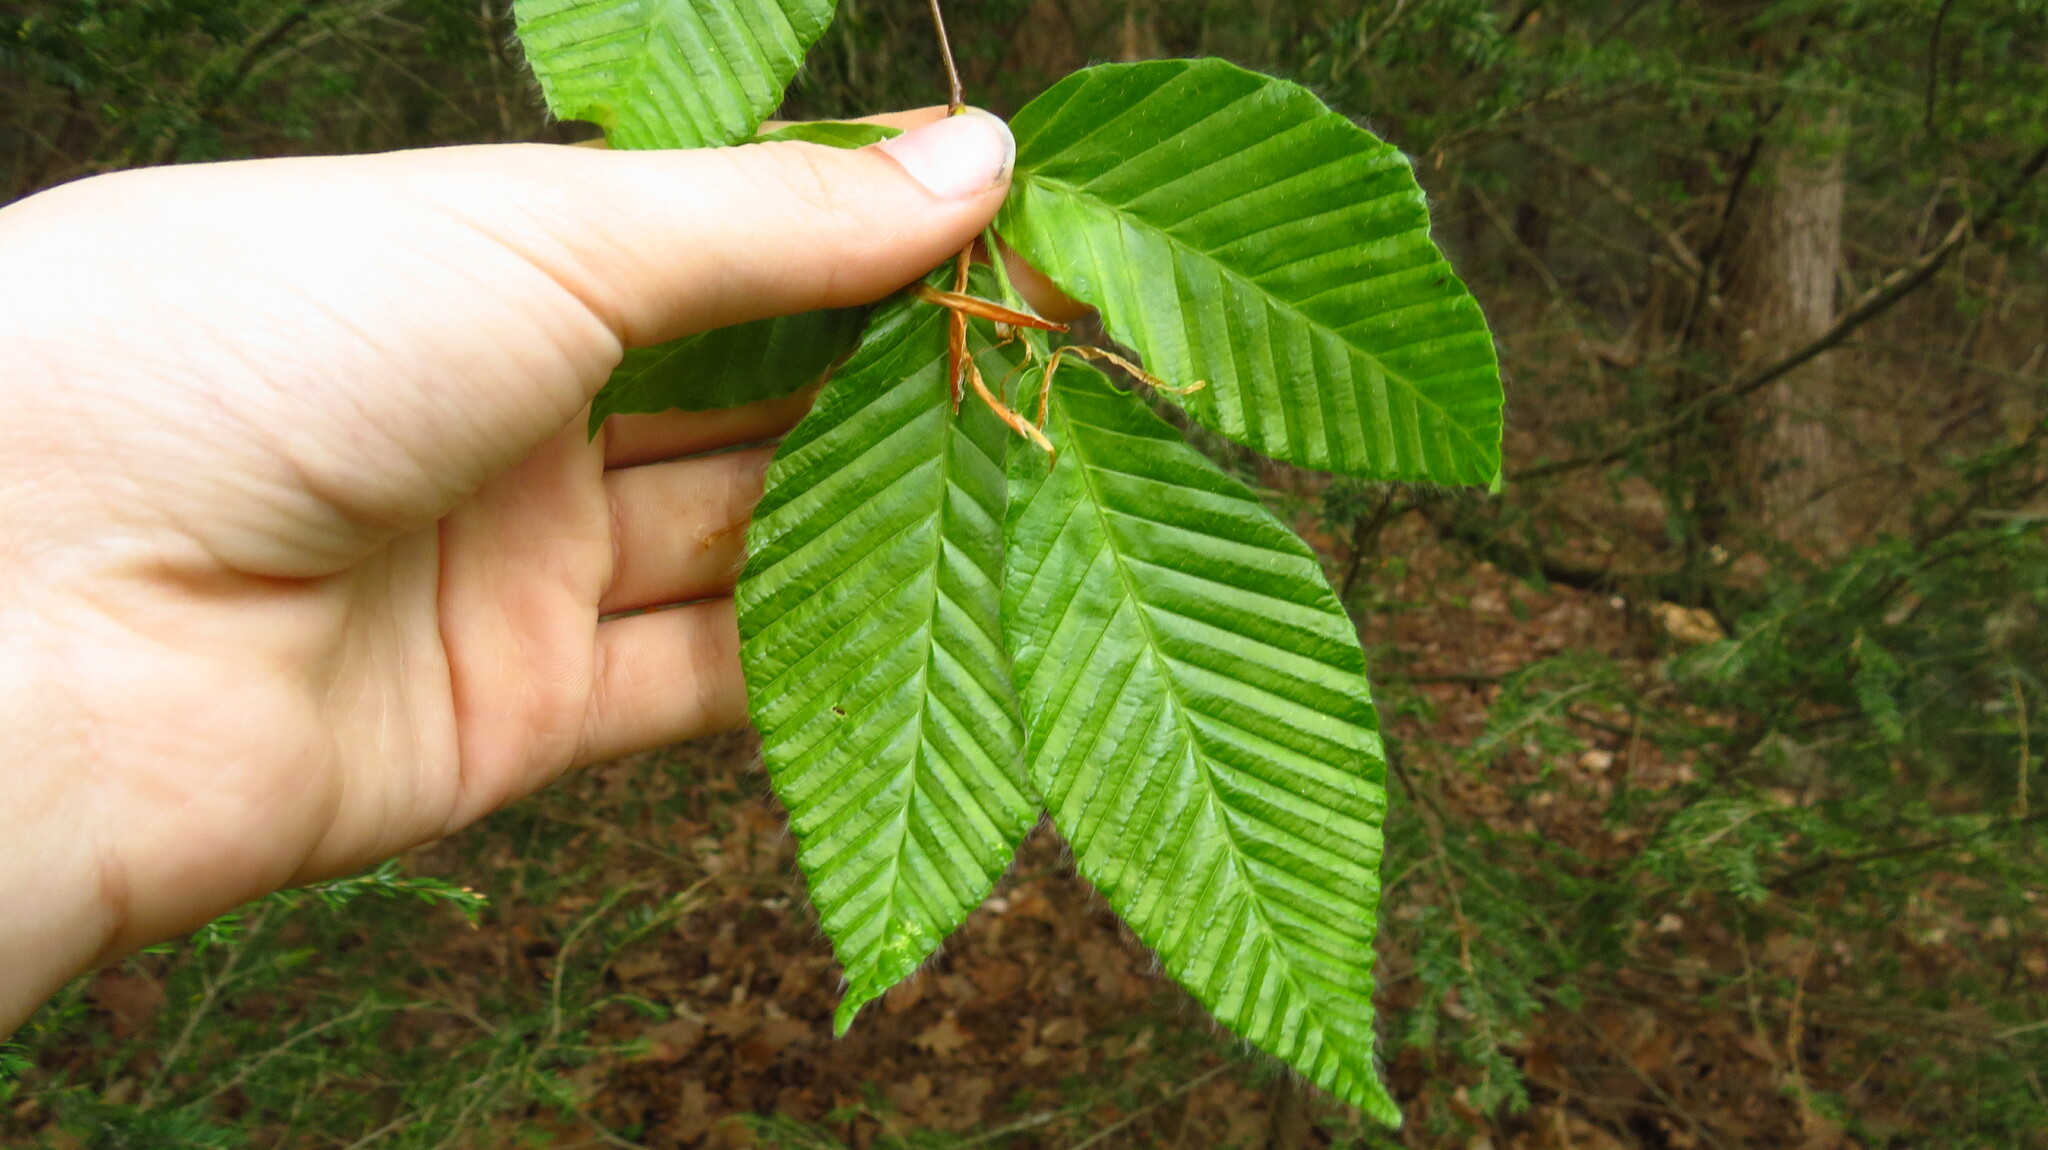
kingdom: Plantae
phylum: Tracheophyta
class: Magnoliopsida
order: Fagales
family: Fagaceae
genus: Fagus
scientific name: Fagus grandifolia
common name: American beech
